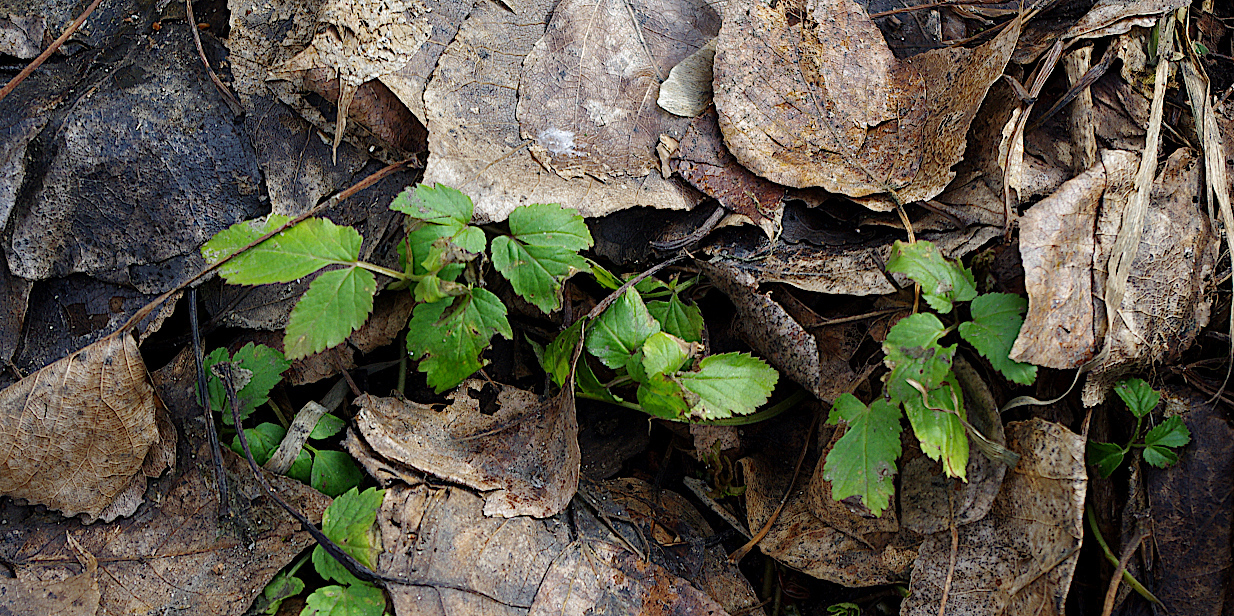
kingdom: Plantae
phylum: Tracheophyta
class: Magnoliopsida
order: Apiales
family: Apiaceae
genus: Aegopodium
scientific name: Aegopodium podagraria
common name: Ground-elder
